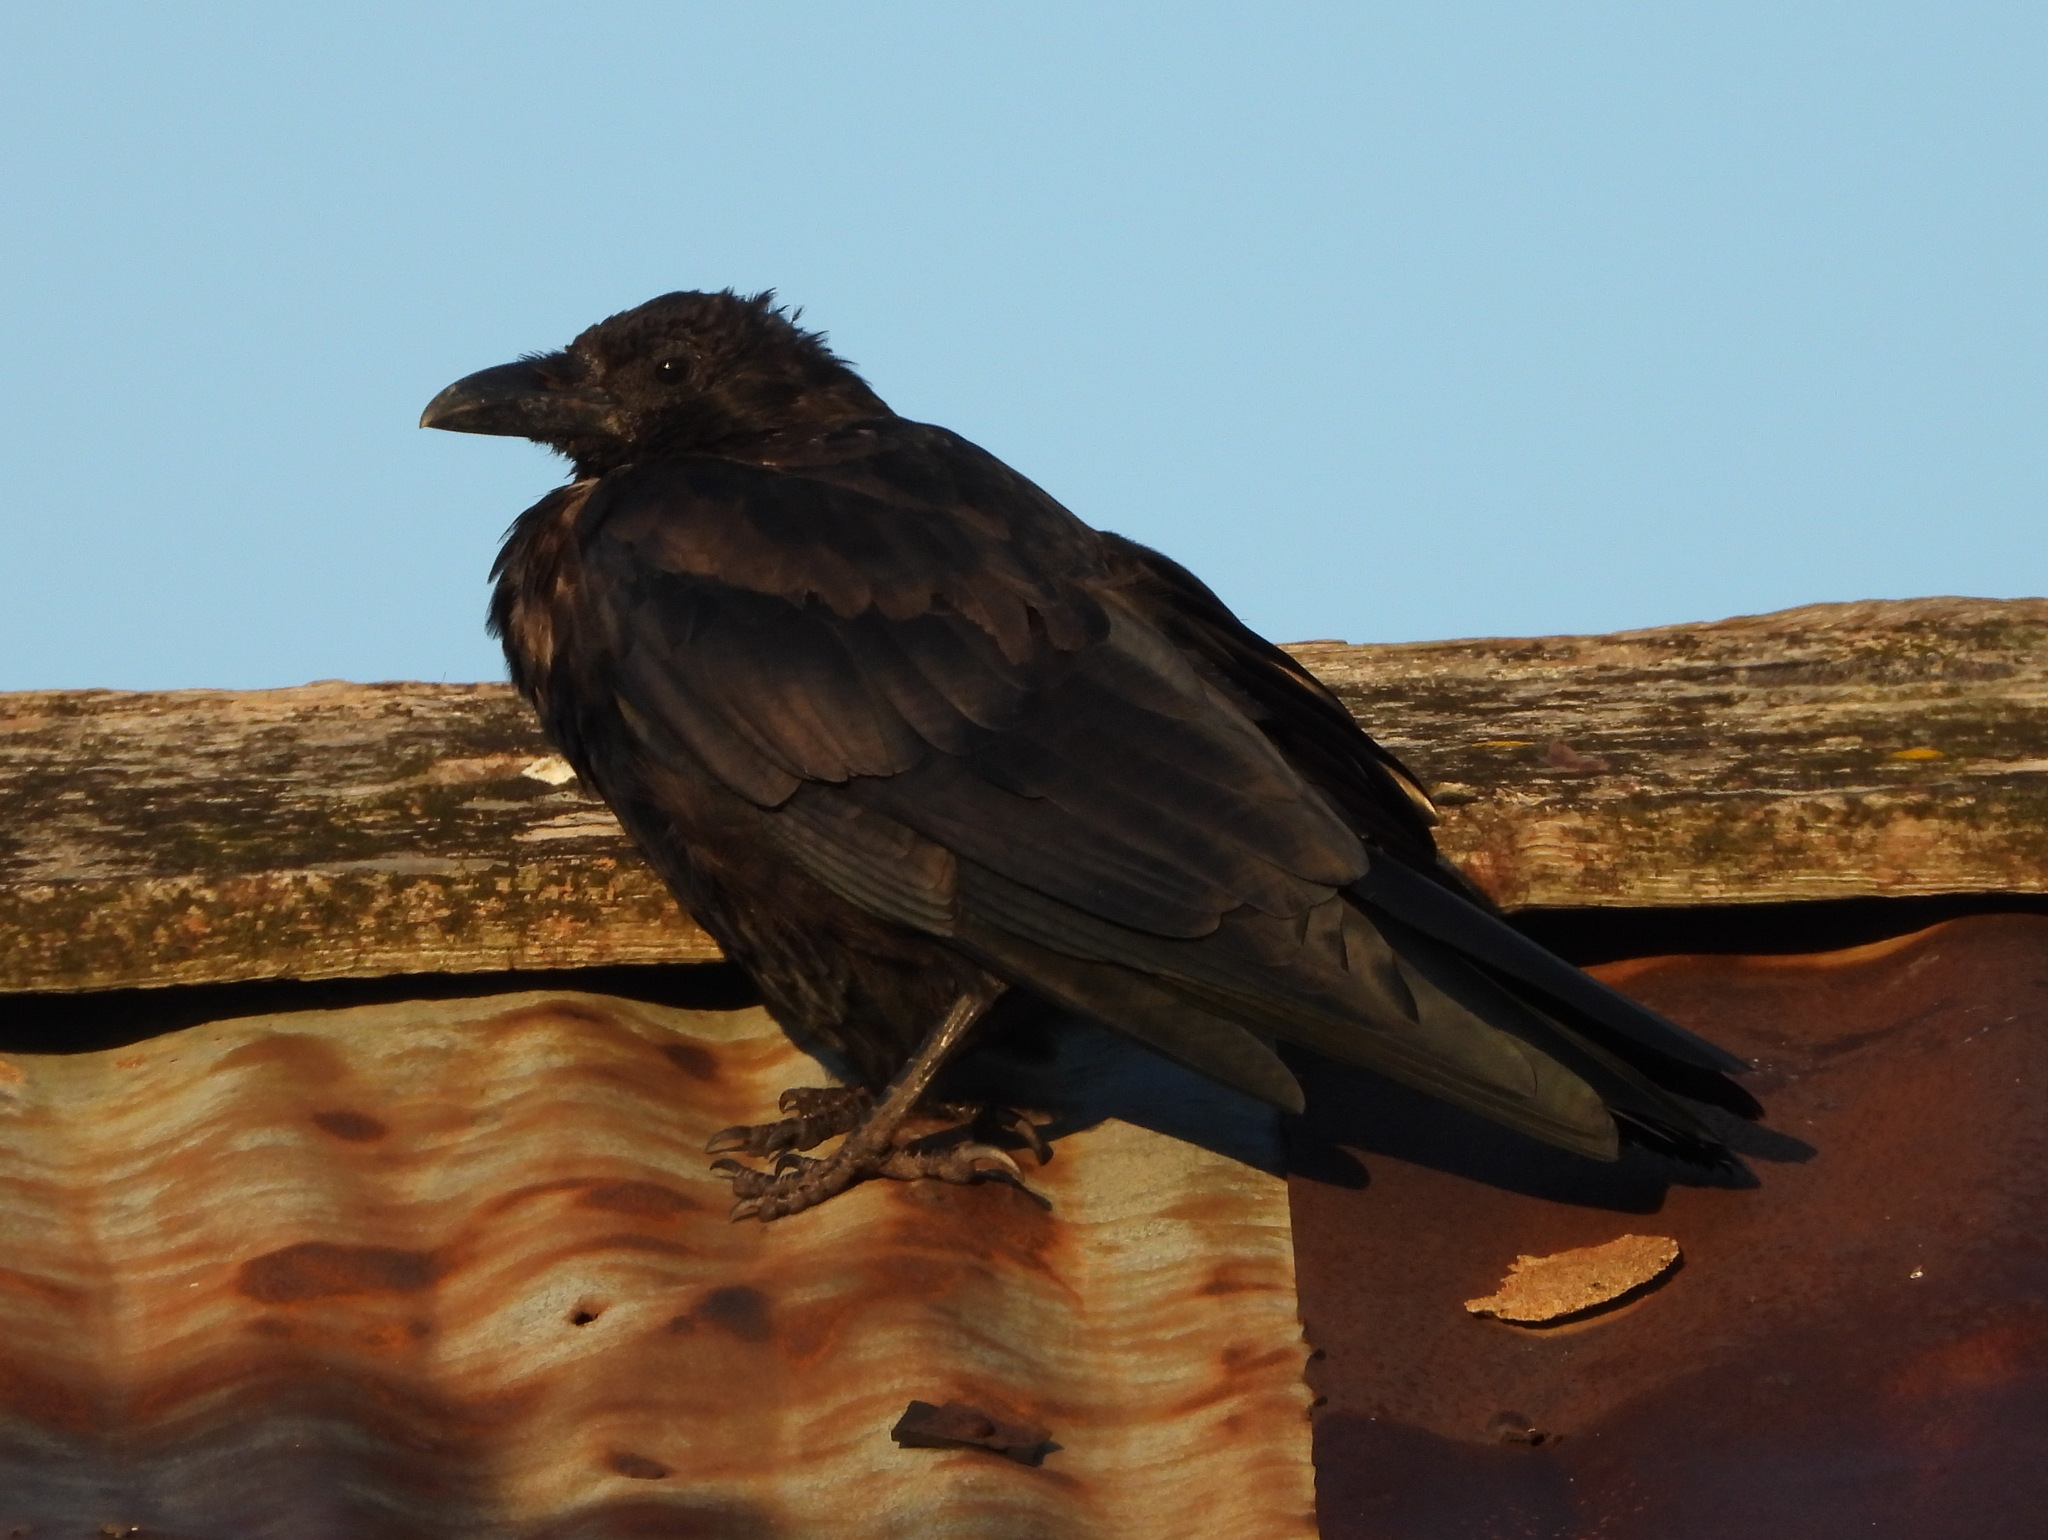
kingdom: Animalia
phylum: Chordata
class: Aves
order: Passeriformes
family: Corvidae
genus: Corvus
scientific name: Corvus corone
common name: Carrion crow
